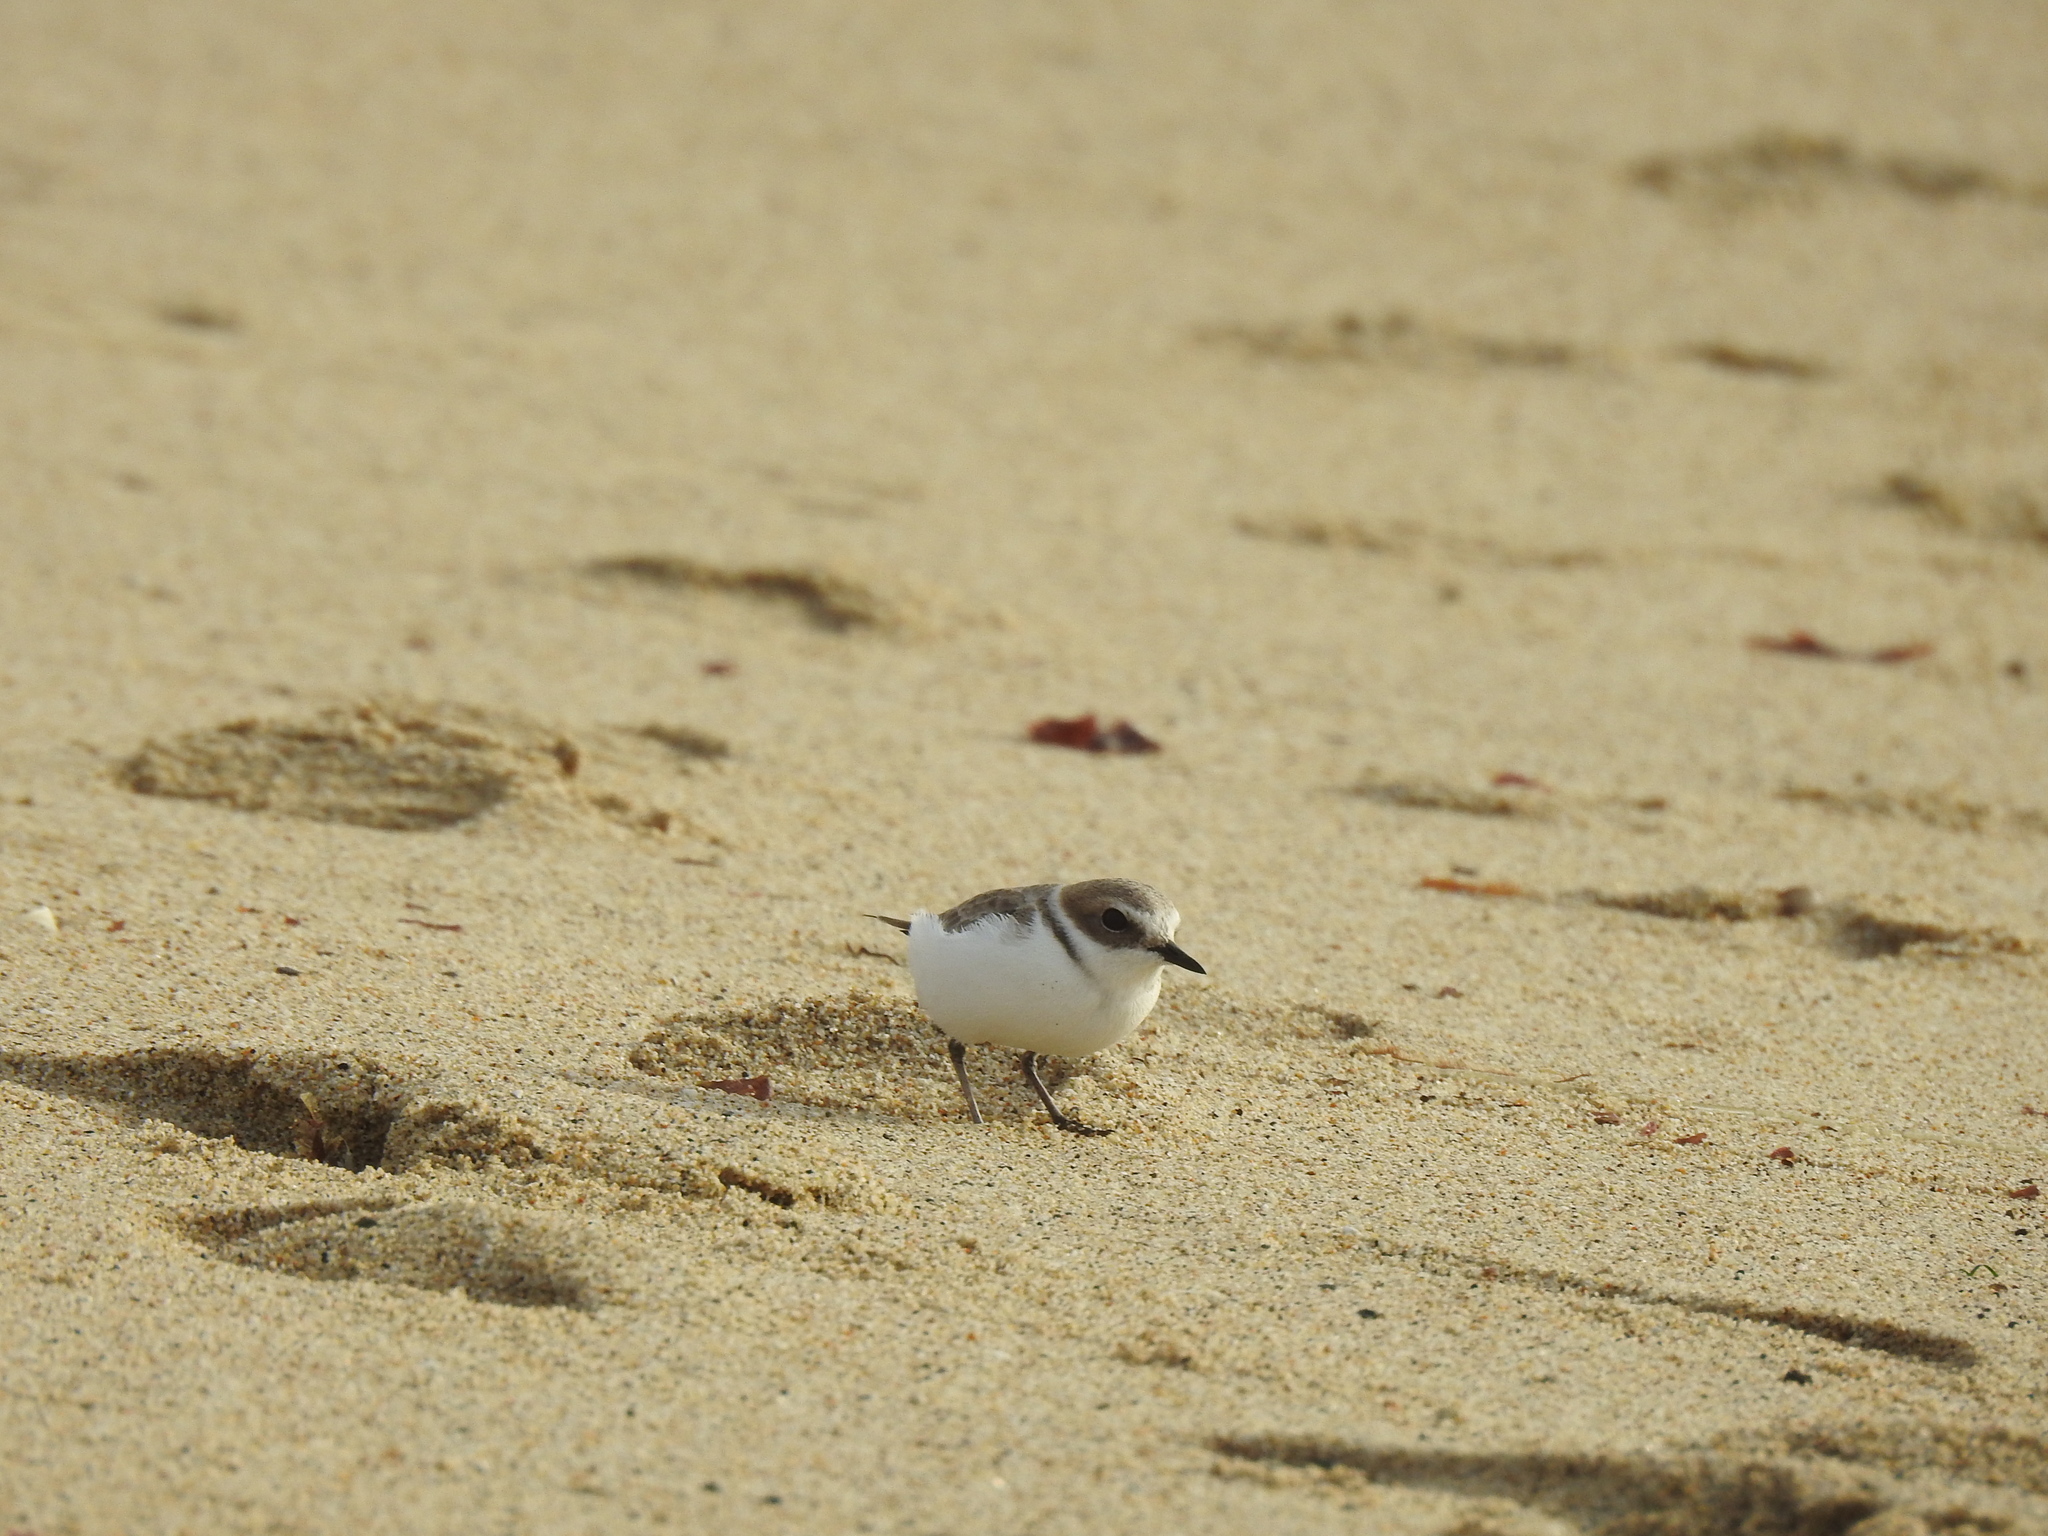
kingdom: Animalia
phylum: Chordata
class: Aves
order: Charadriiformes
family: Charadriidae
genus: Anarhynchus
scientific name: Anarhynchus
